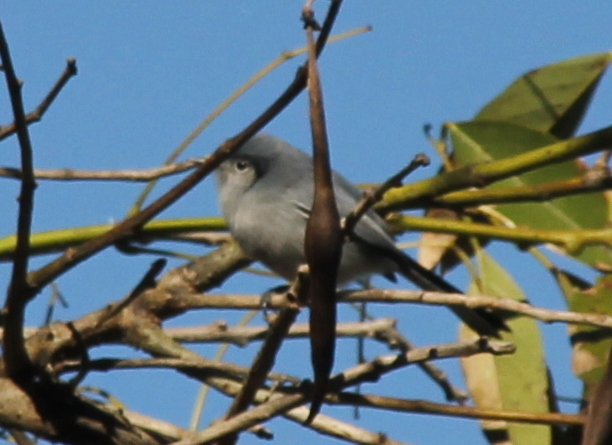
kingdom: Animalia
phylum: Chordata
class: Aves
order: Passeriformes
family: Polioptilidae
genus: Polioptila
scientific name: Polioptila dumicola
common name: Masked gnatcatcher
